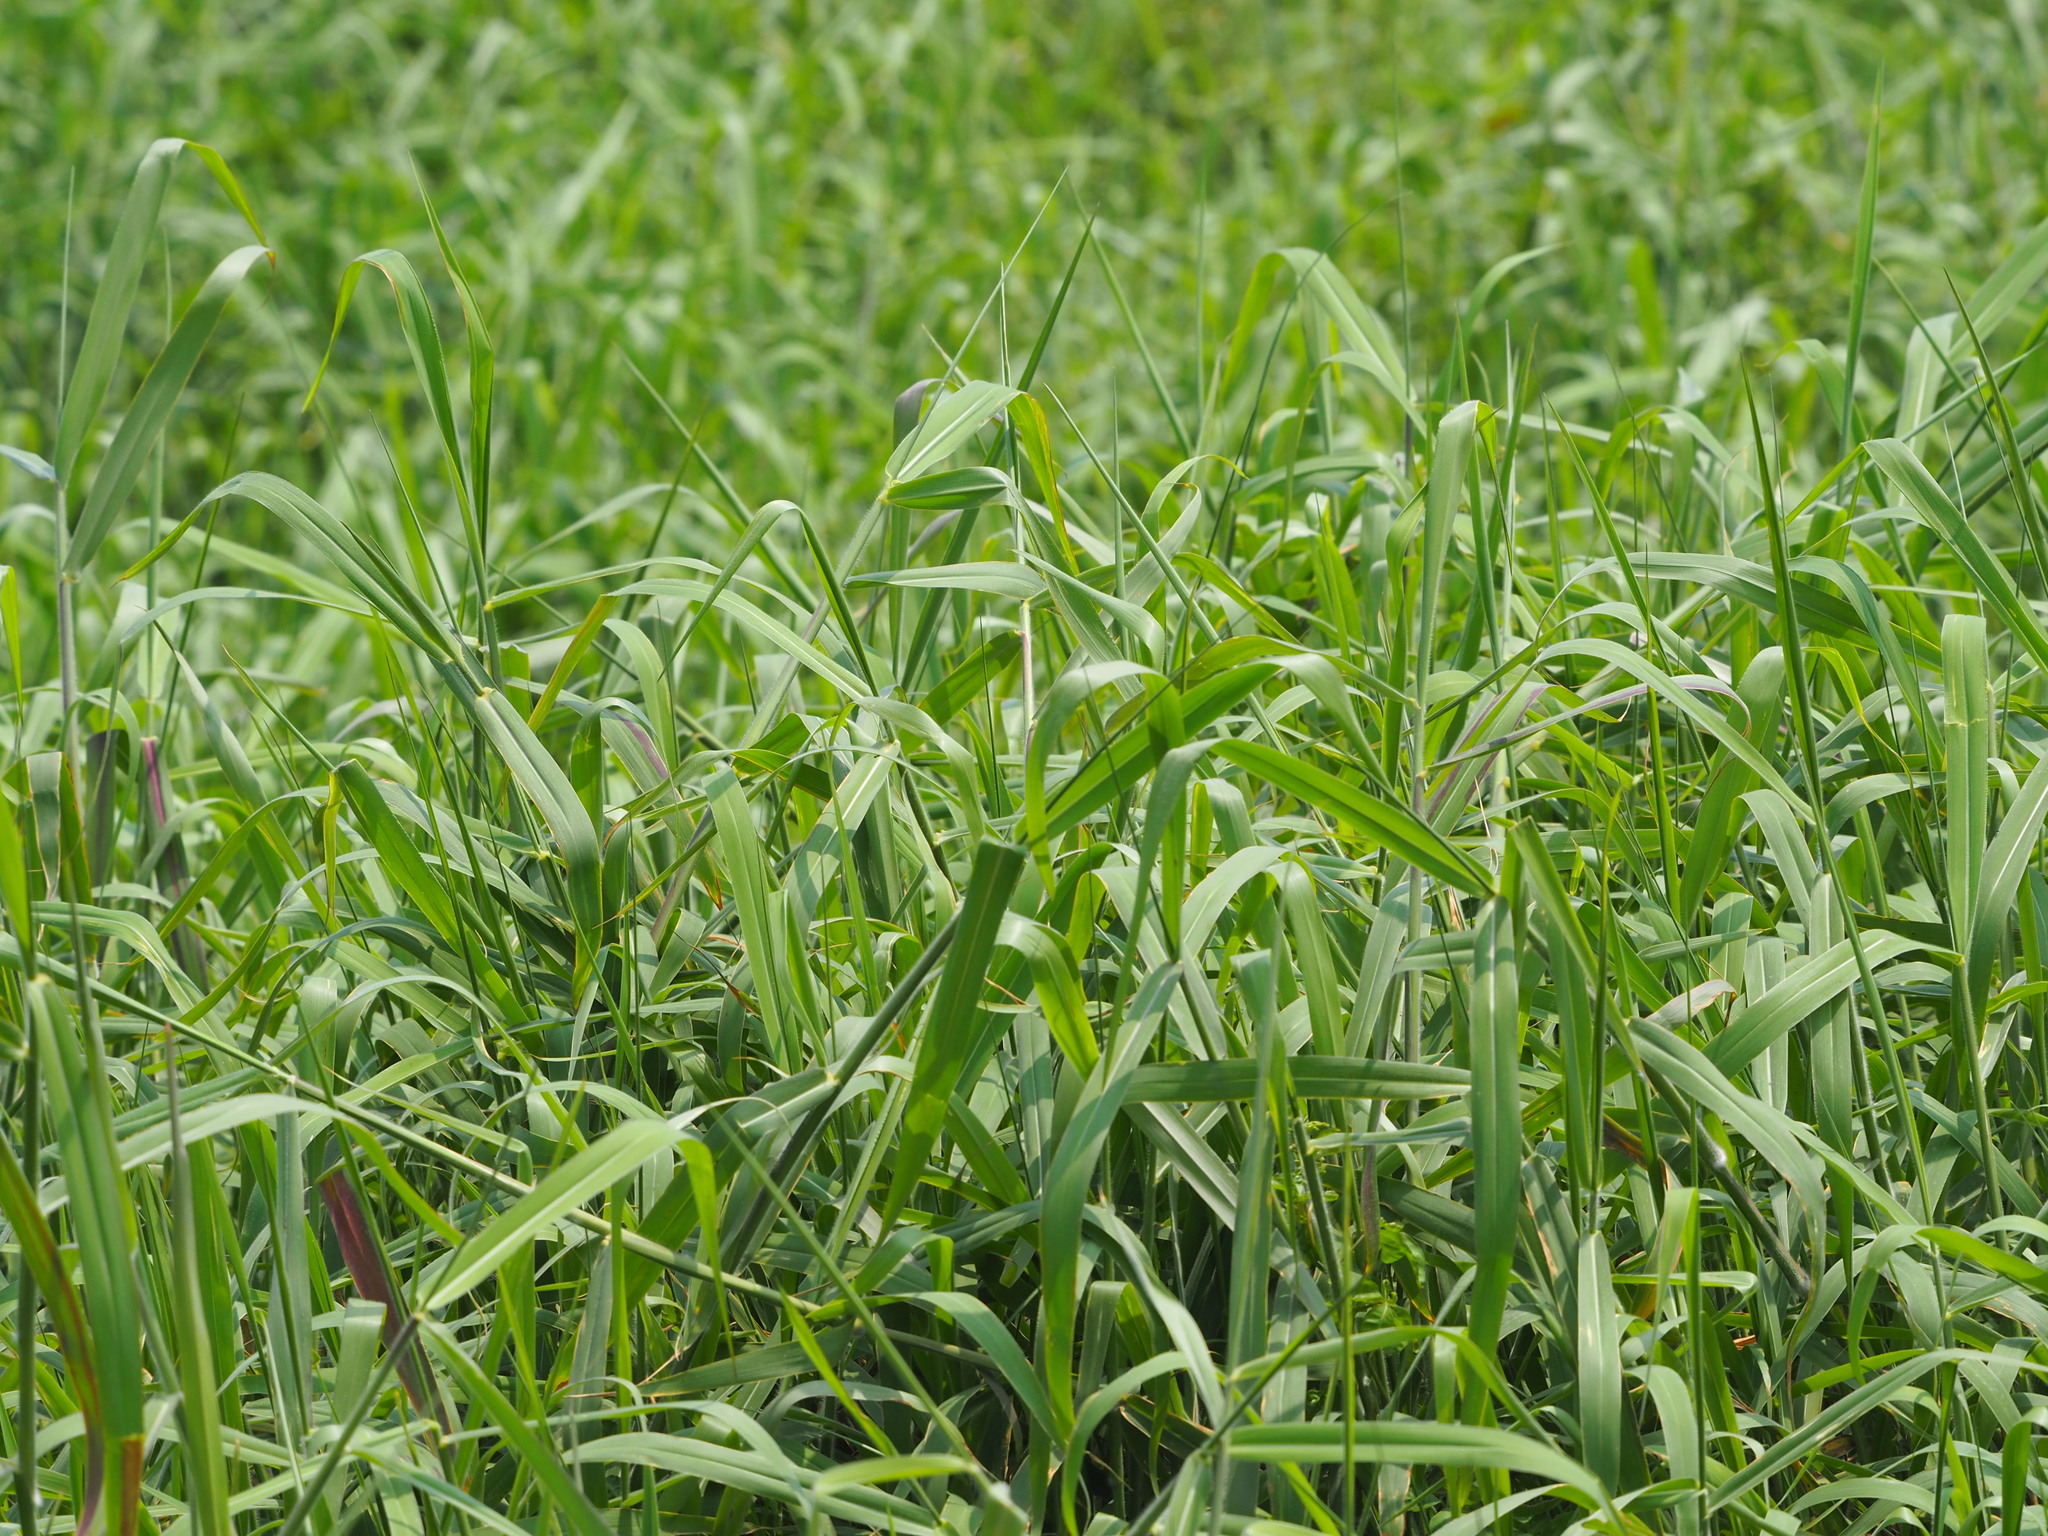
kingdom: Plantae
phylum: Tracheophyta
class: Liliopsida
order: Poales
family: Poaceae
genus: Urochloa
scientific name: Urochloa mutica
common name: Para grass
